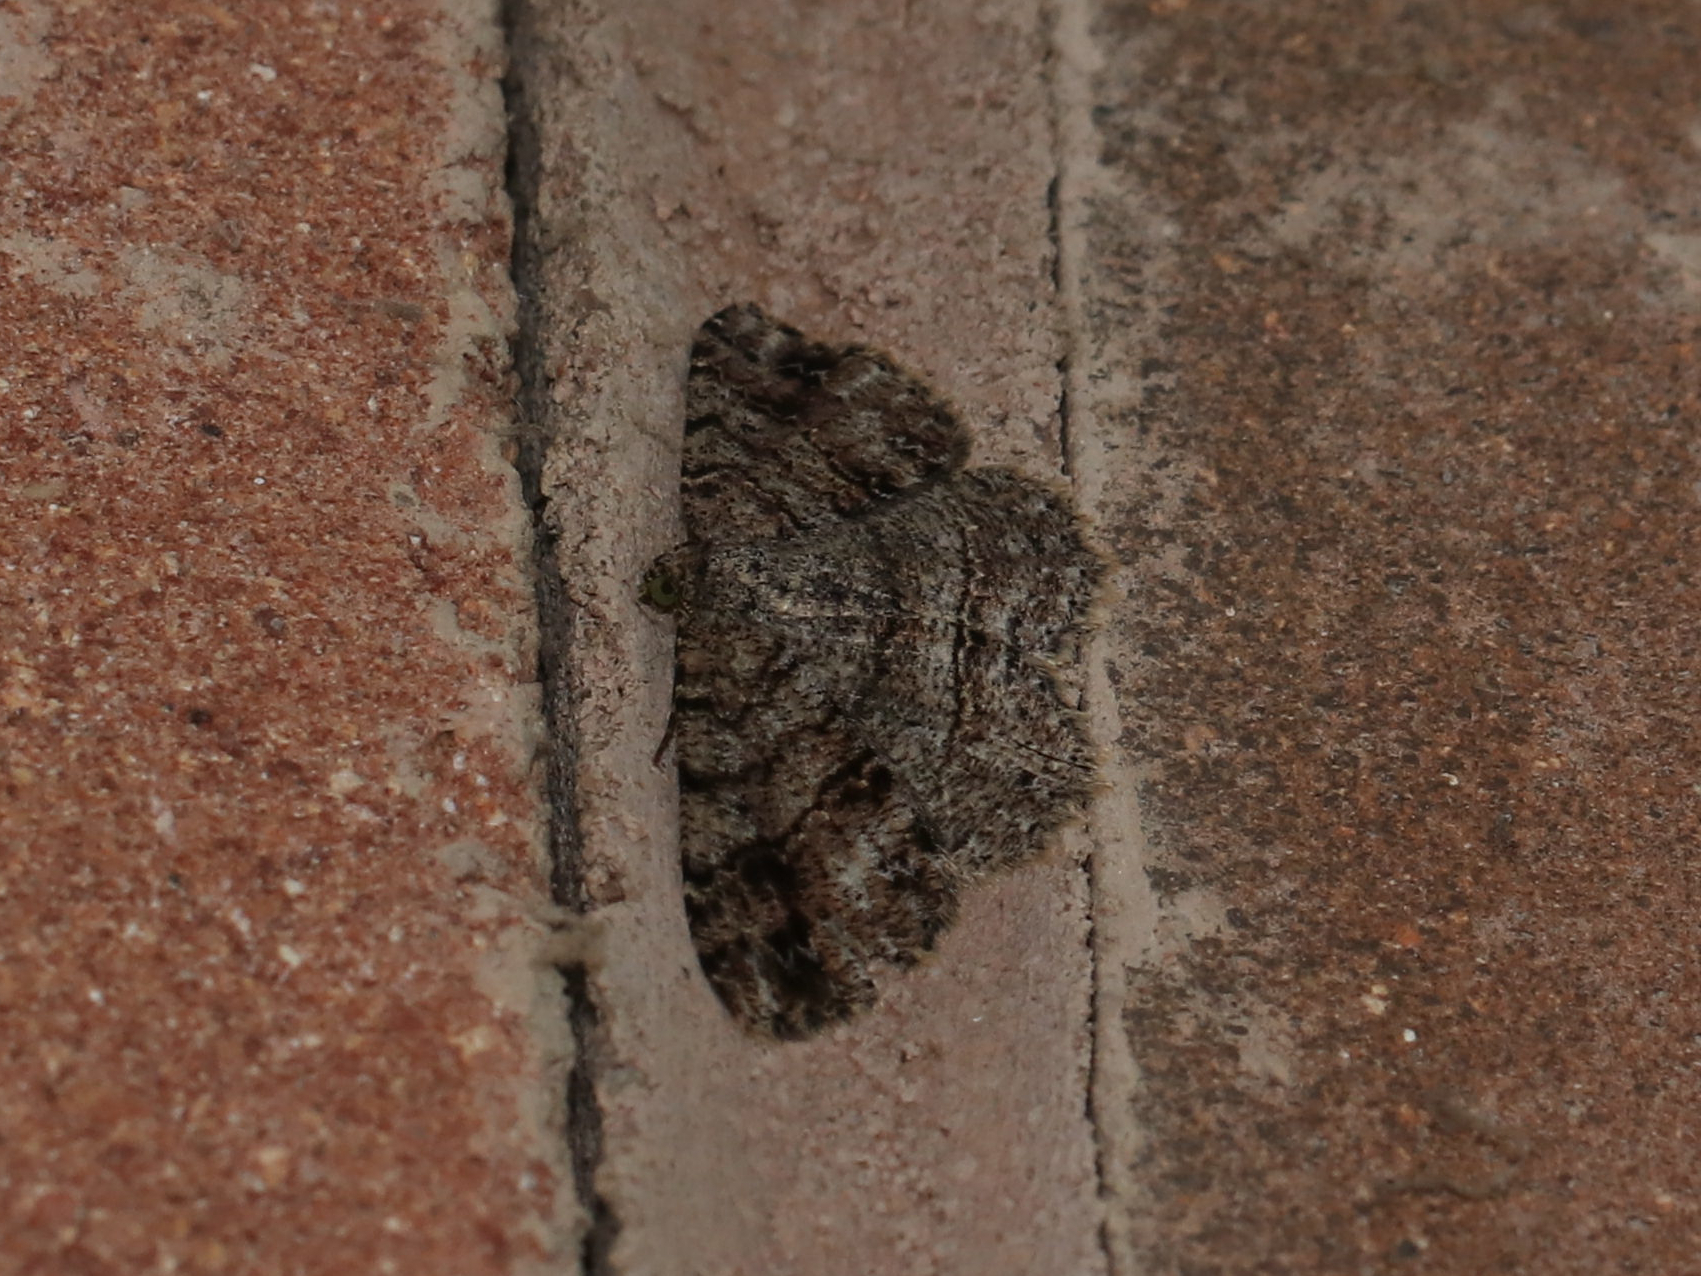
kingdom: Animalia
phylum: Arthropoda
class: Insecta
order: Lepidoptera
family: Geometridae
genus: Melanolophia
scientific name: Melanolophia canadaria
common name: Canadian melanolophia
